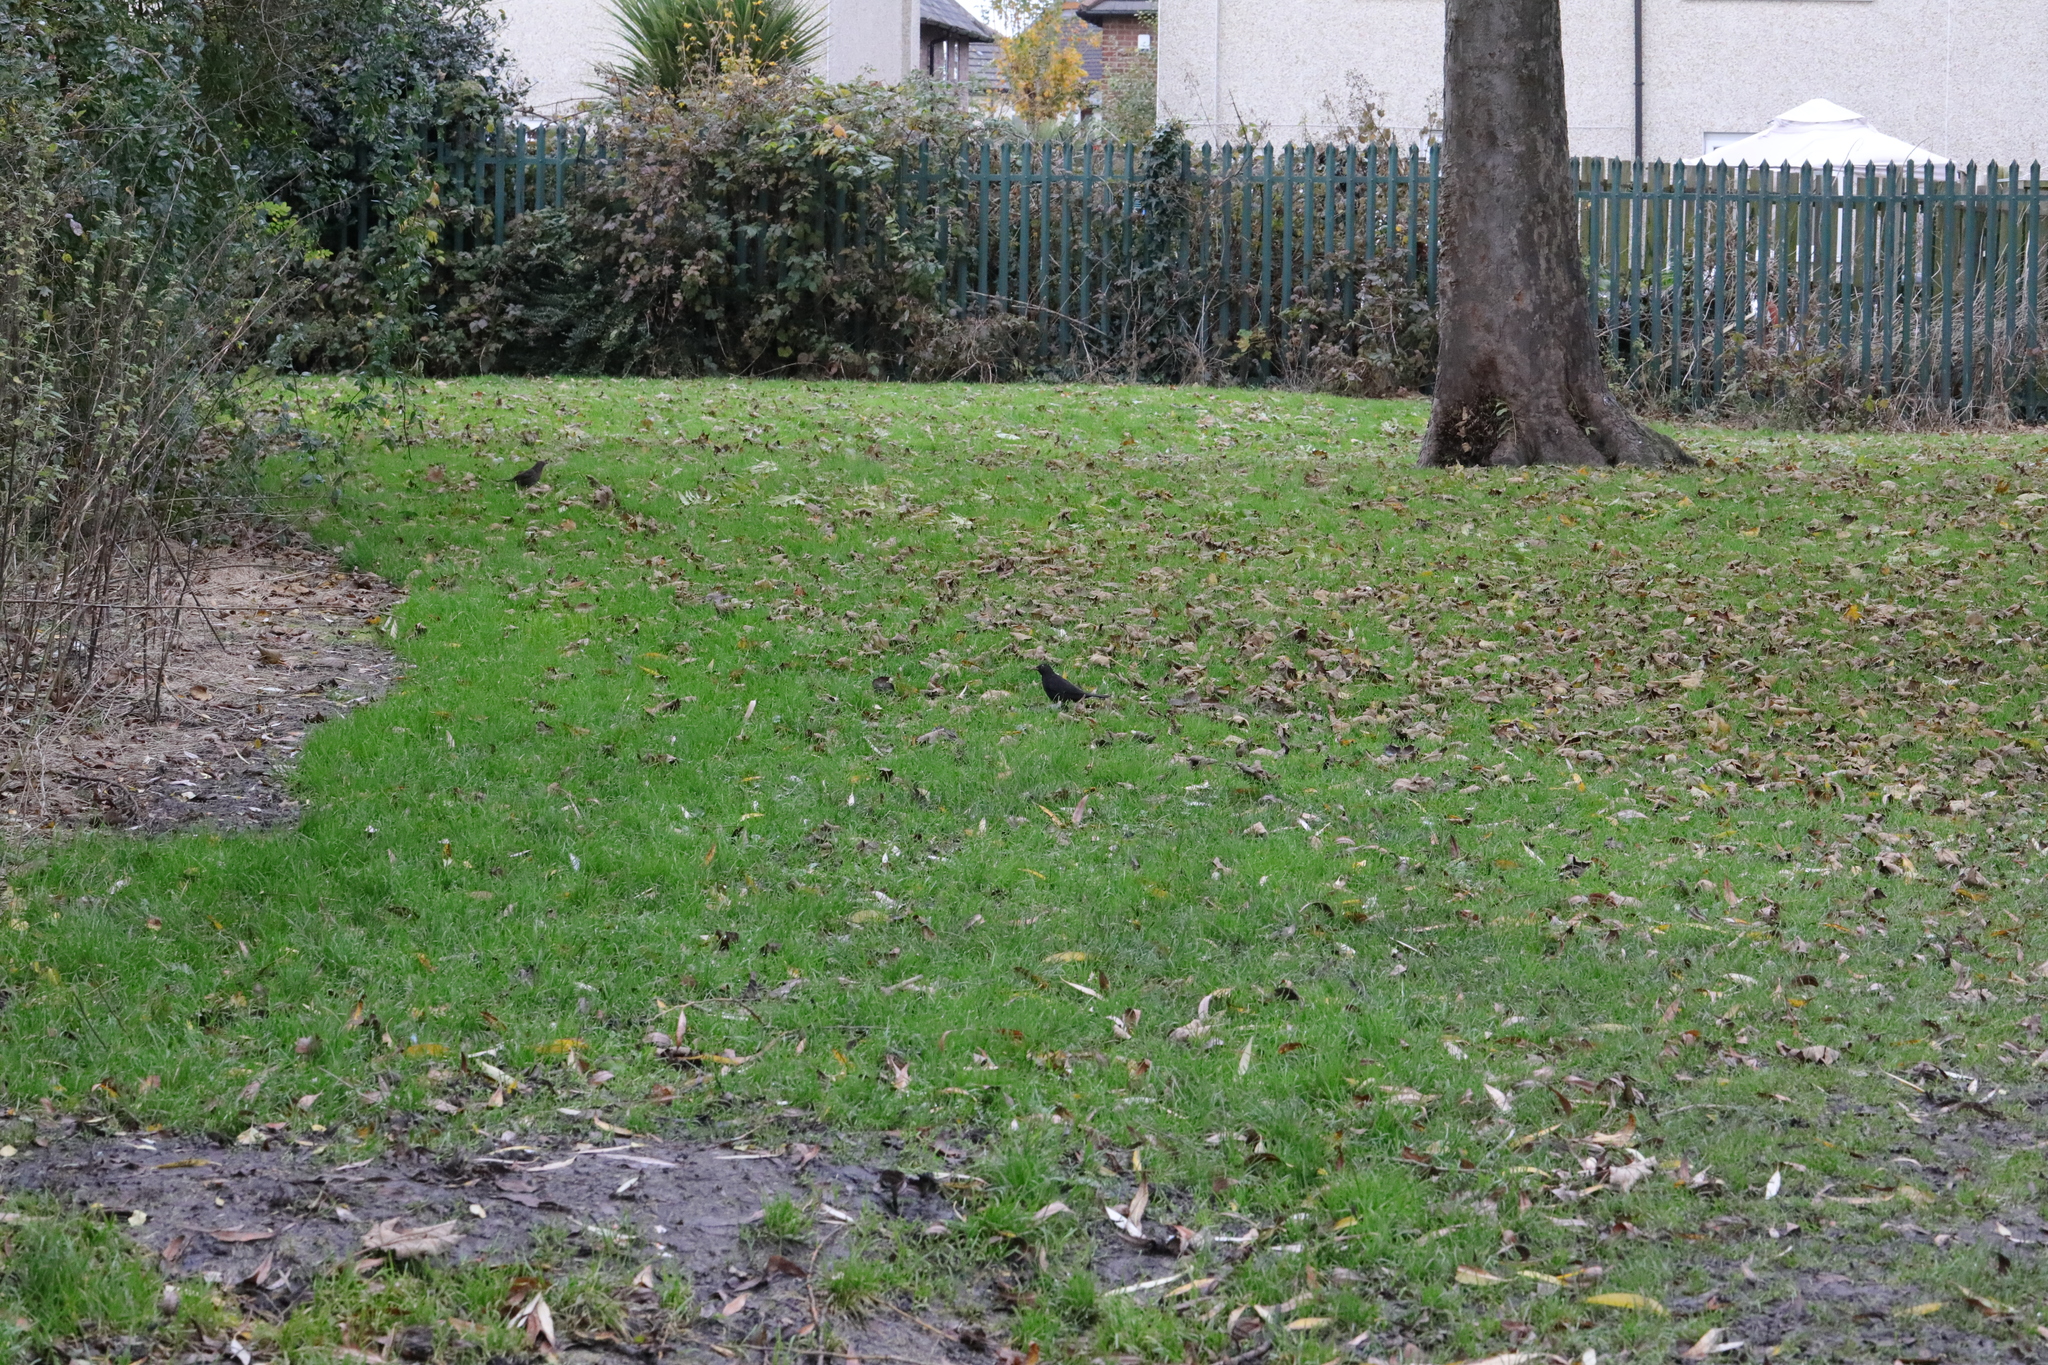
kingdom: Animalia
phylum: Chordata
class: Aves
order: Passeriformes
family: Turdidae
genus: Turdus
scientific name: Turdus merula
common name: Common blackbird
